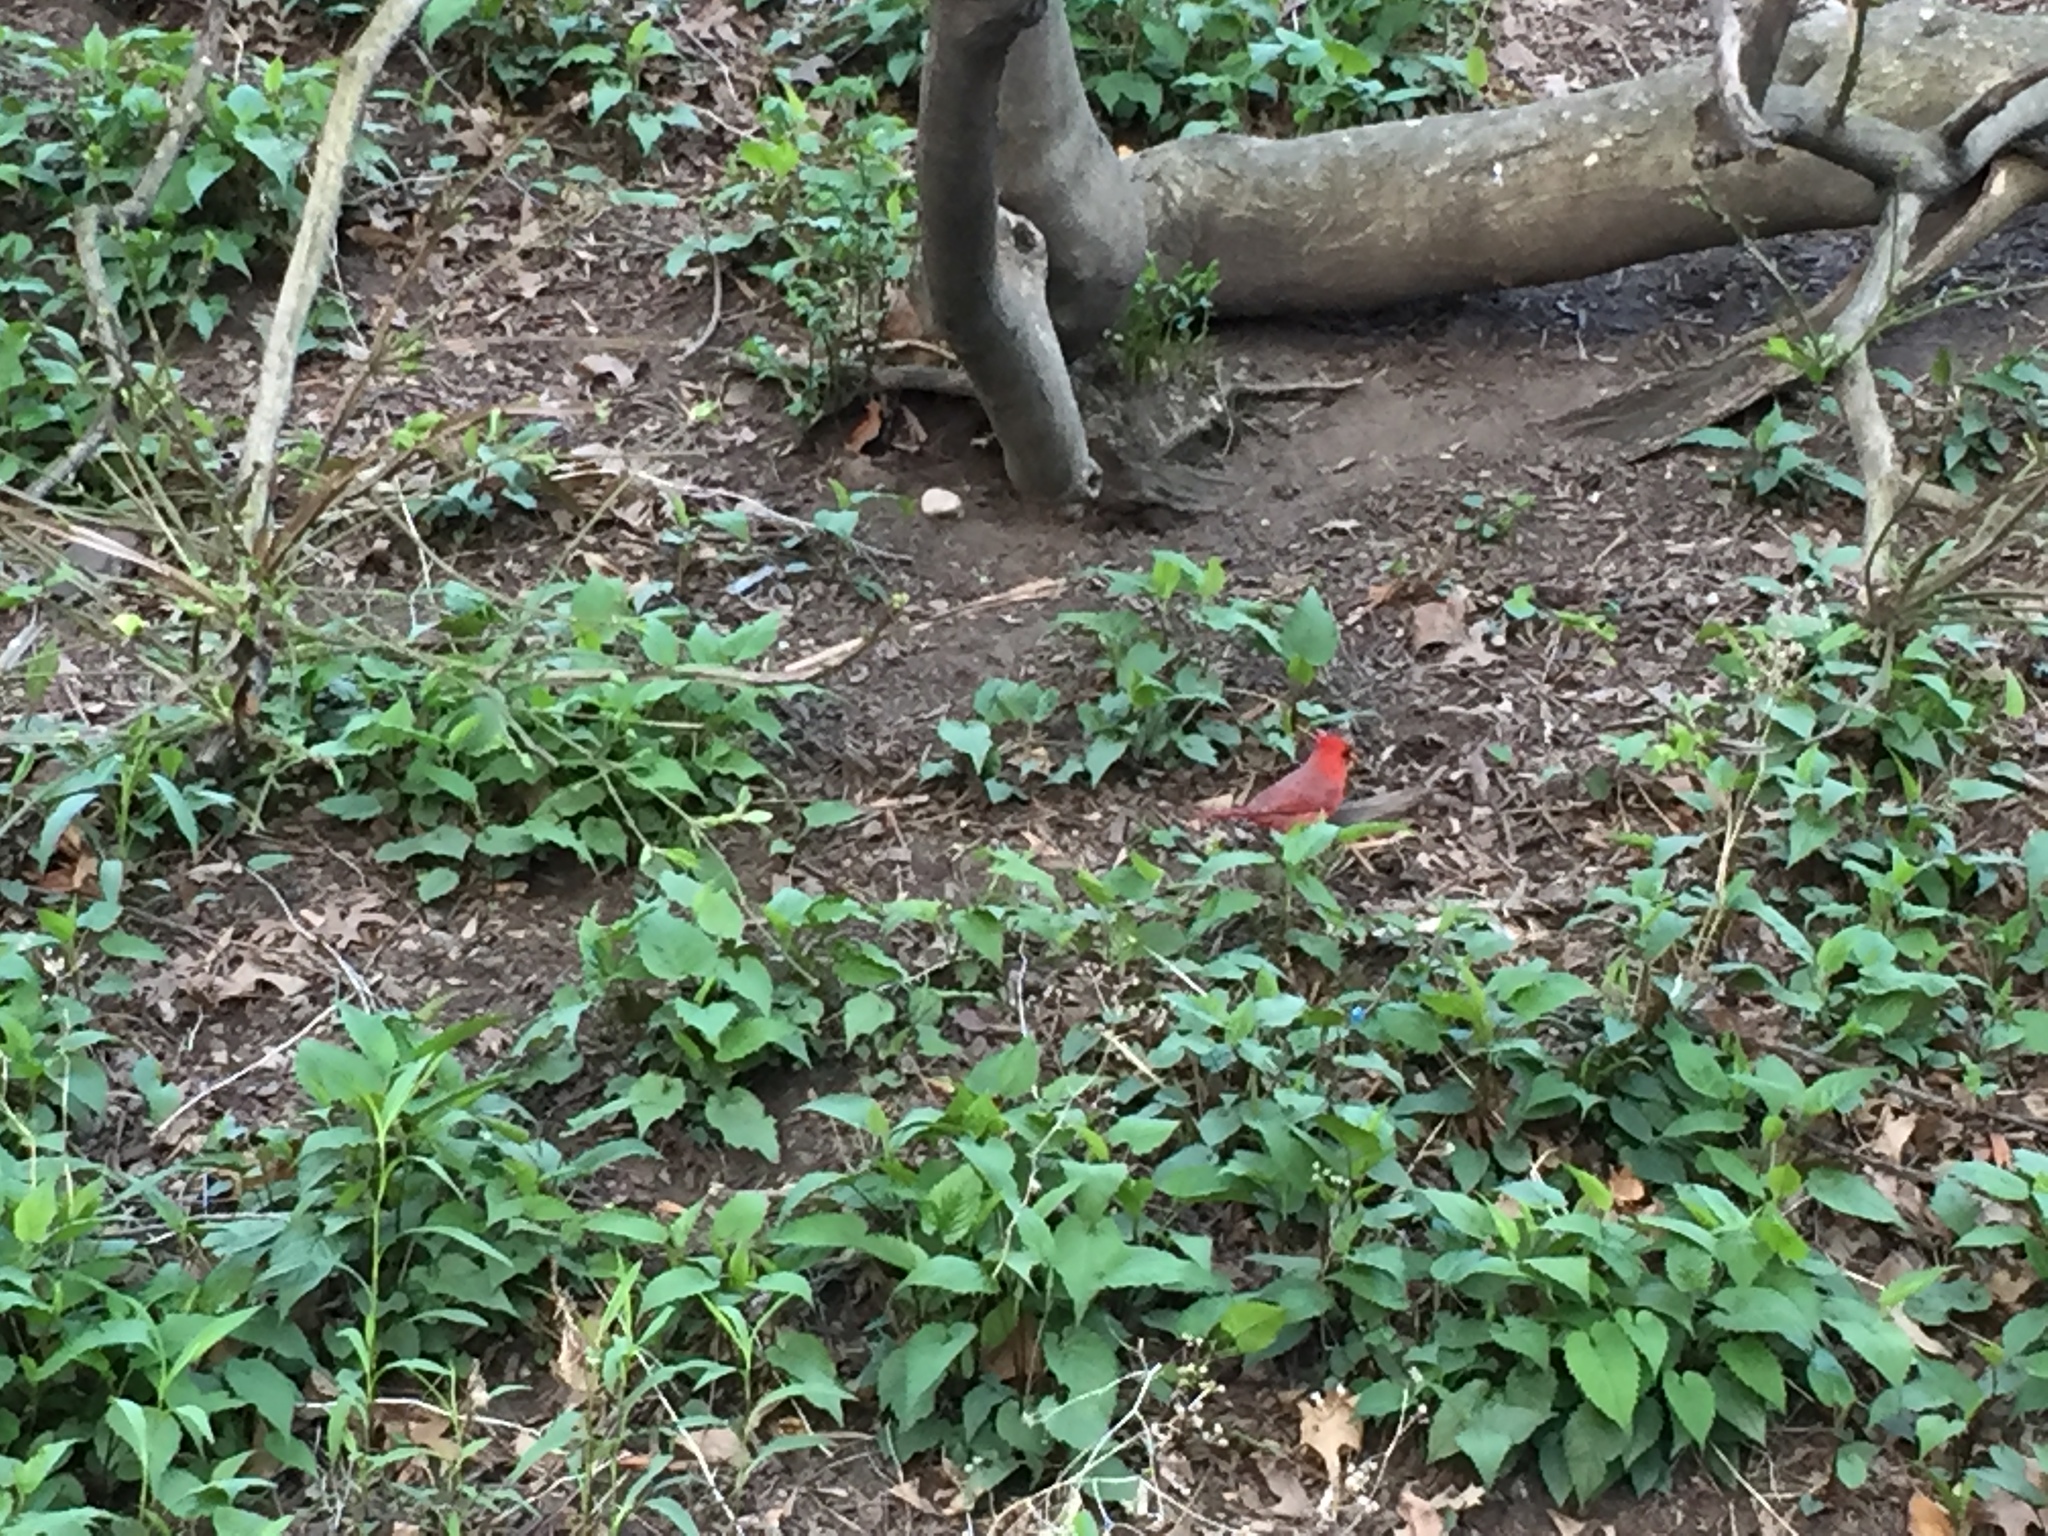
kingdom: Animalia
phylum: Chordata
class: Aves
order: Passeriformes
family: Cardinalidae
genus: Cardinalis
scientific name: Cardinalis cardinalis
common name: Northern cardinal
